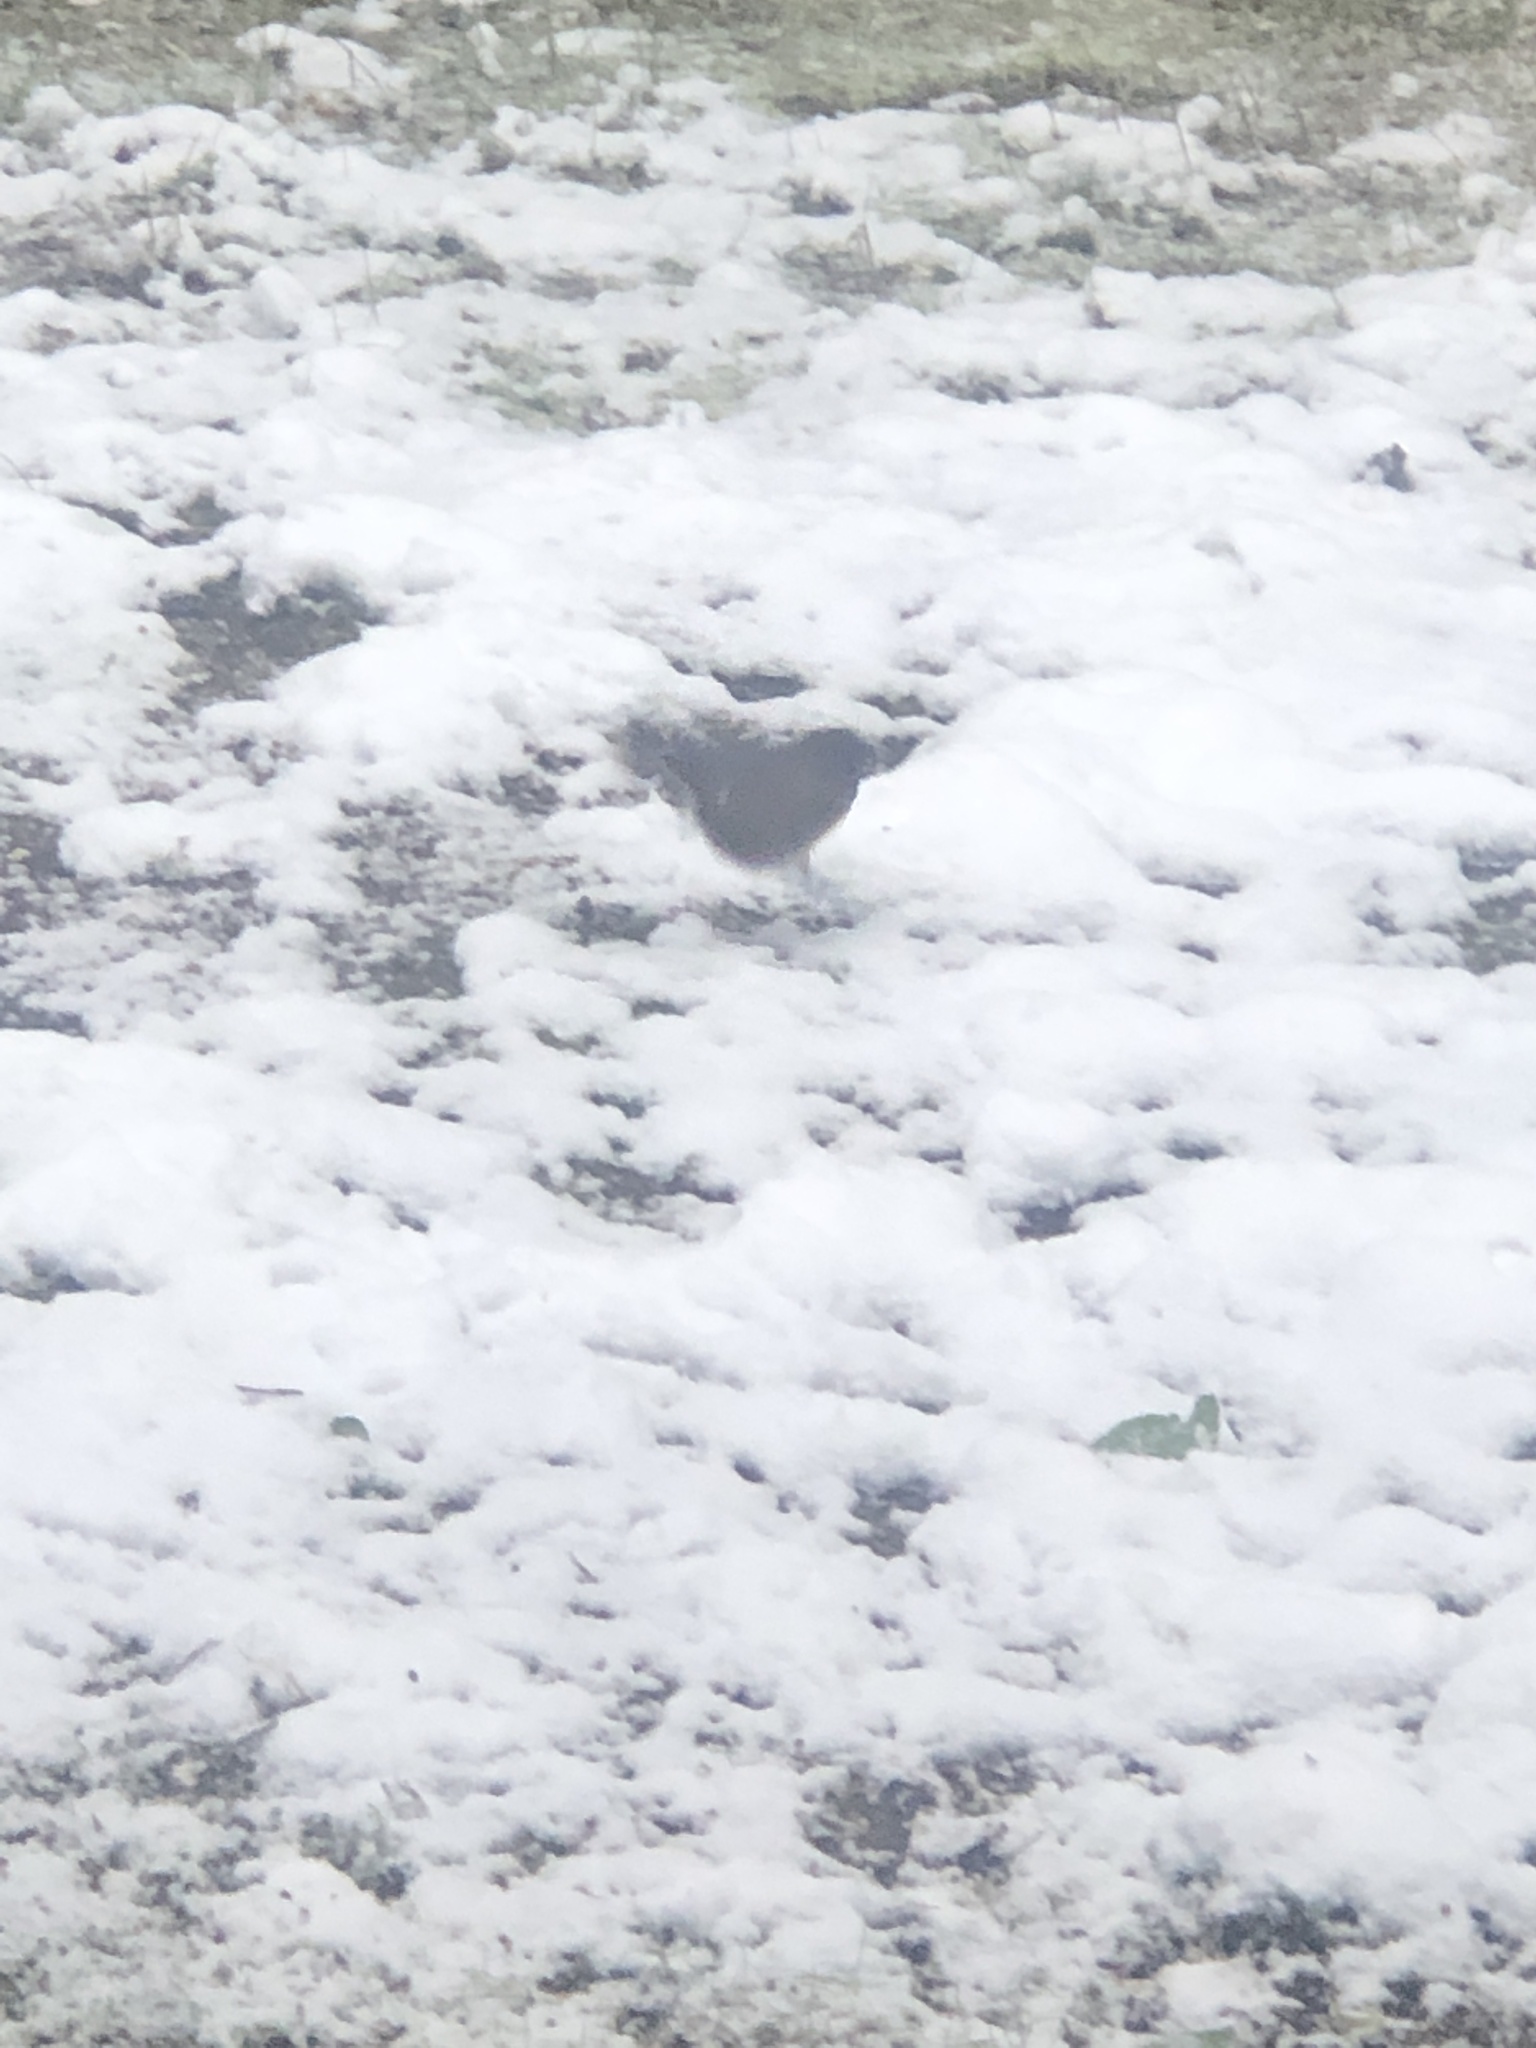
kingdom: Animalia
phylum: Chordata
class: Aves
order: Passeriformes
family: Passerellidae
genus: Junco
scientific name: Junco hyemalis
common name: Dark-eyed junco
